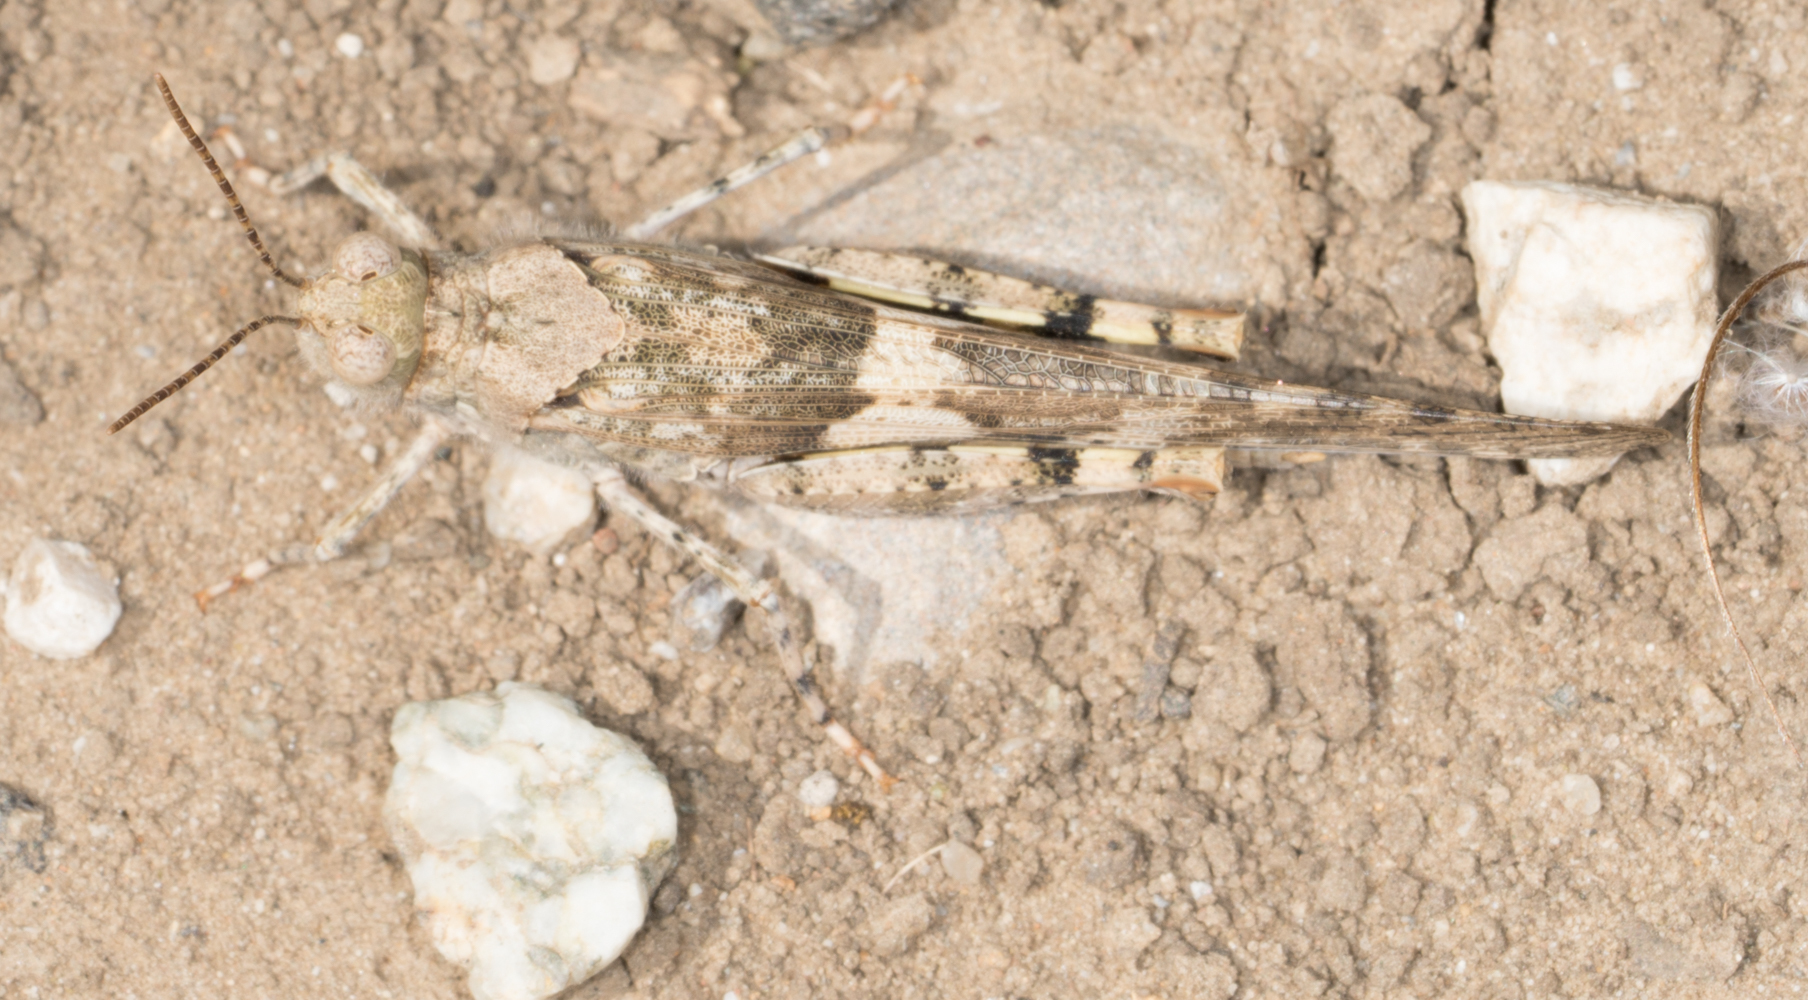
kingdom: Animalia
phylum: Arthropoda
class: Insecta
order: Orthoptera
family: Acrididae
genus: Trimerotropis
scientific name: Trimerotropis pallidipennis
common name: Pallid-winged grasshopper
